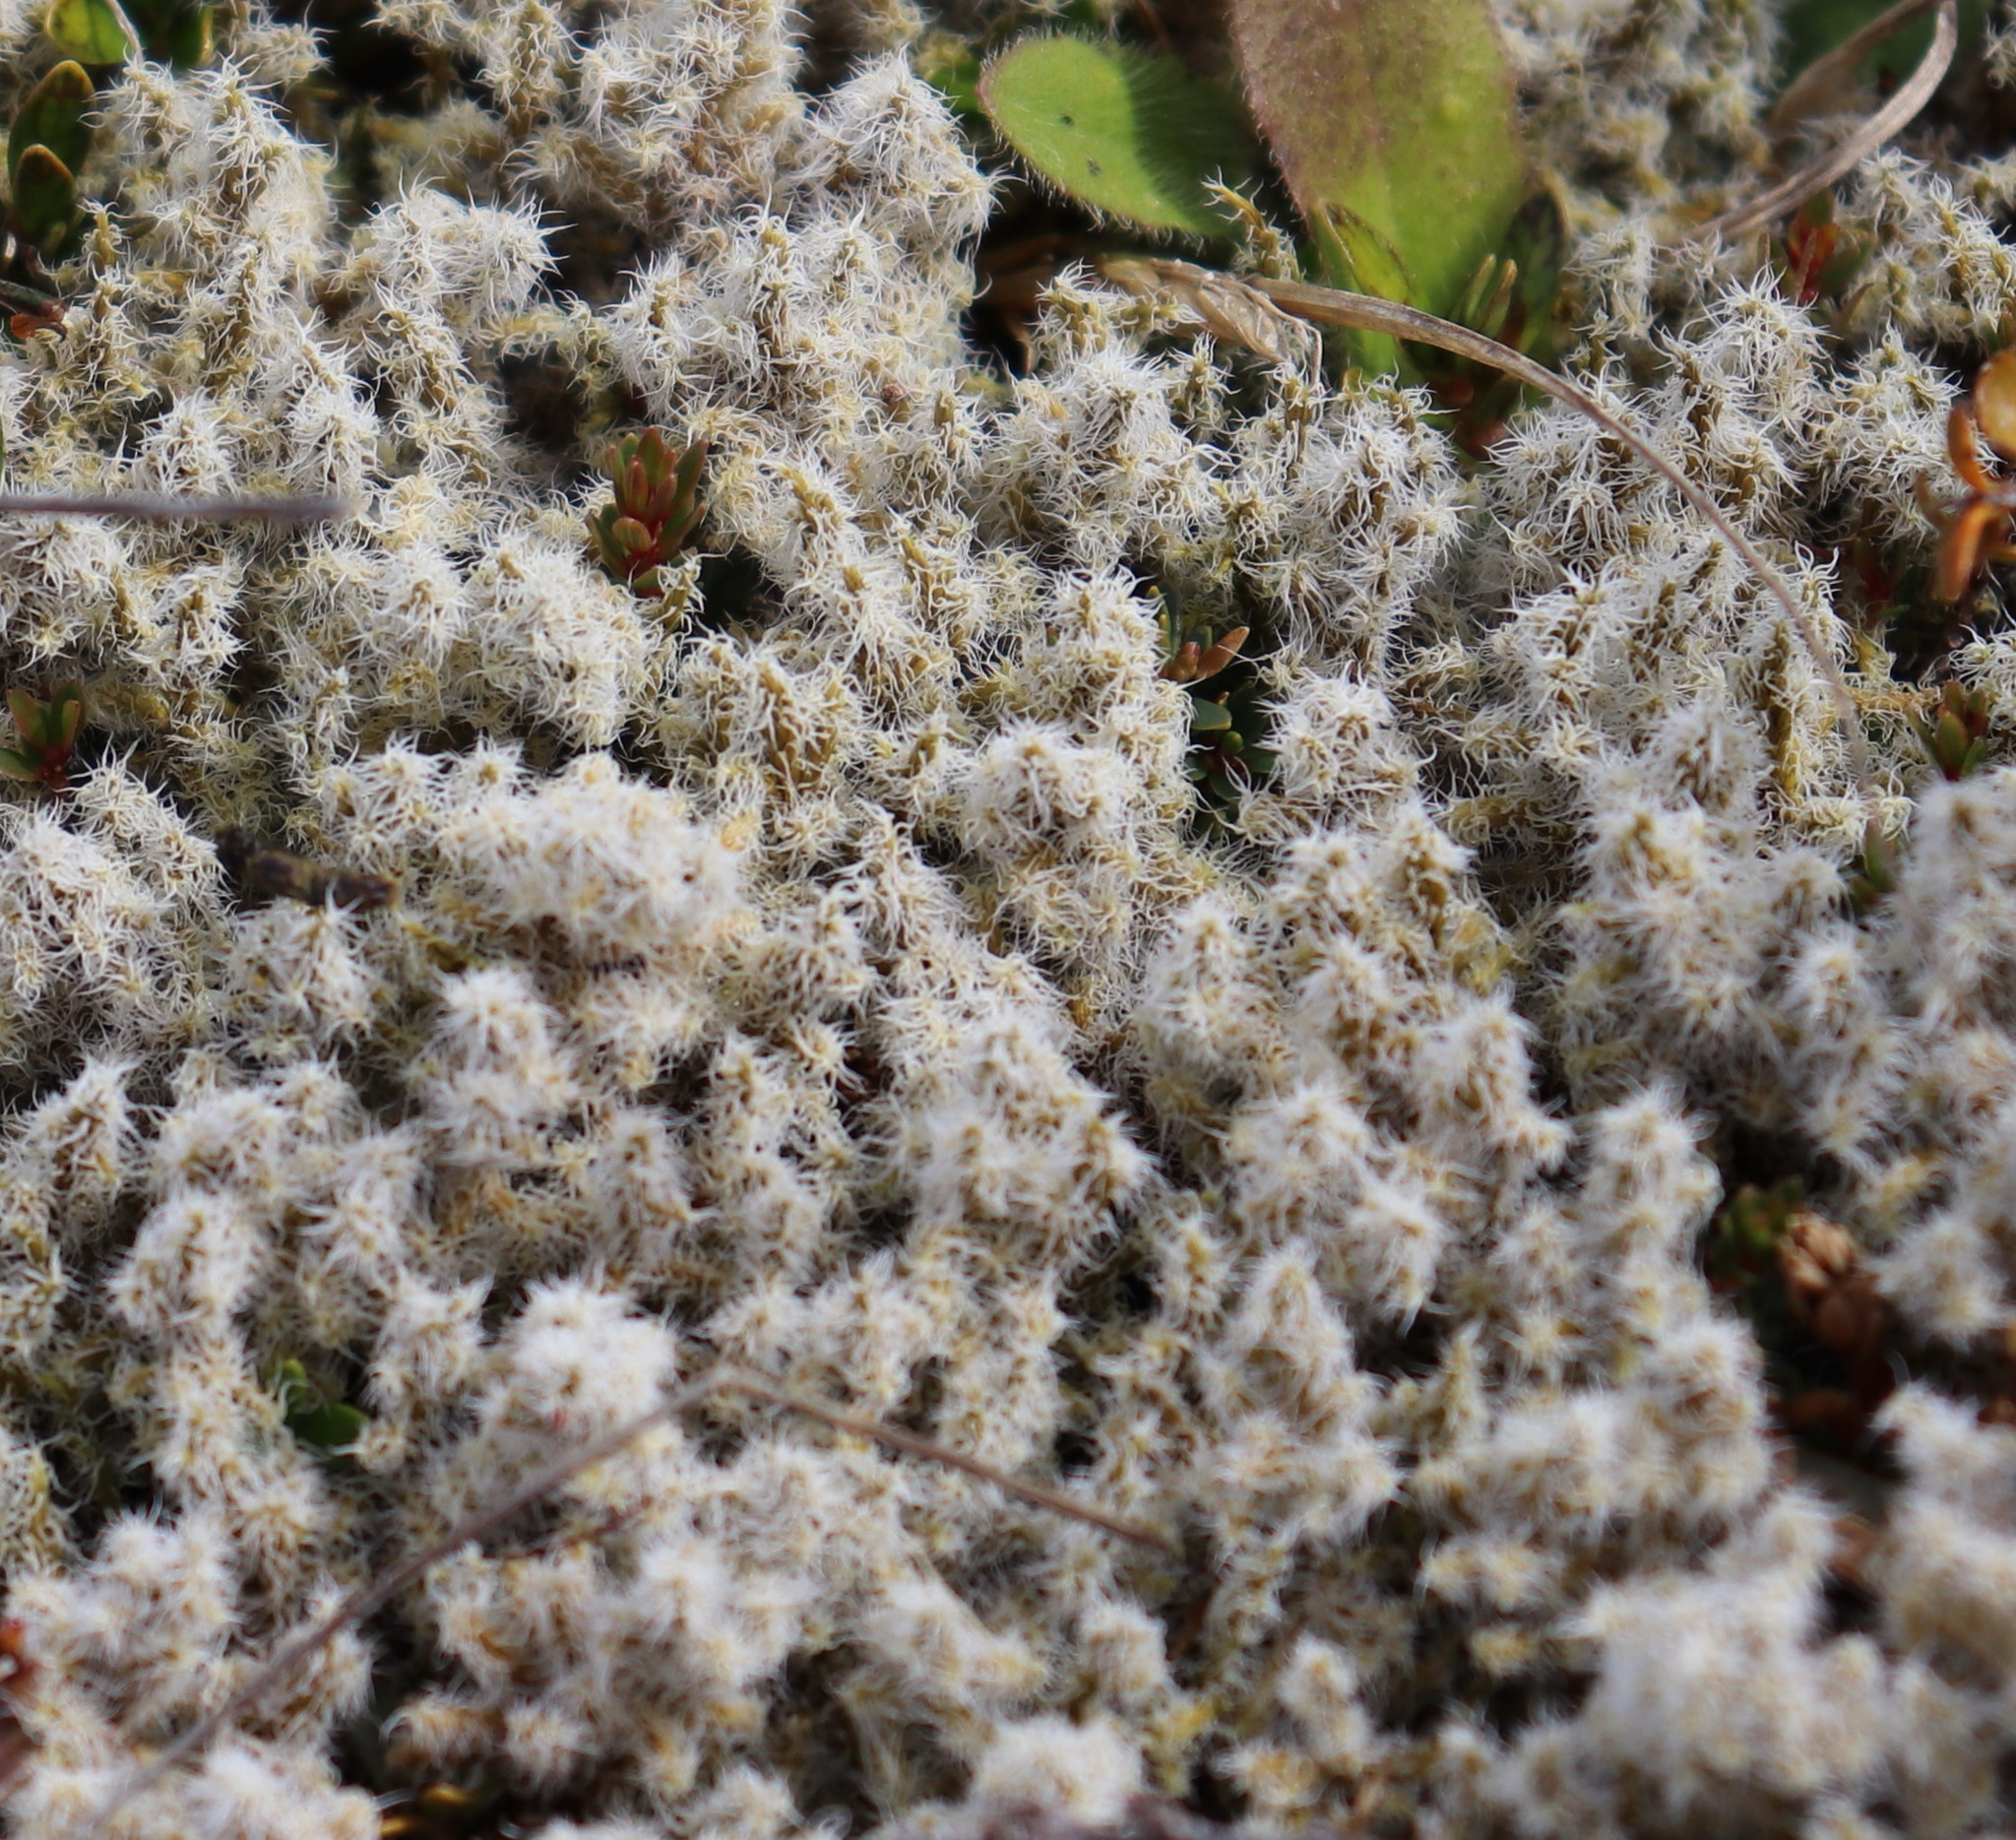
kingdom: Plantae
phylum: Bryophyta
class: Bryopsida
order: Grimmiales
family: Grimmiaceae
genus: Racomitrium
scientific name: Racomitrium lanuginosum
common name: Hoary rock moss
